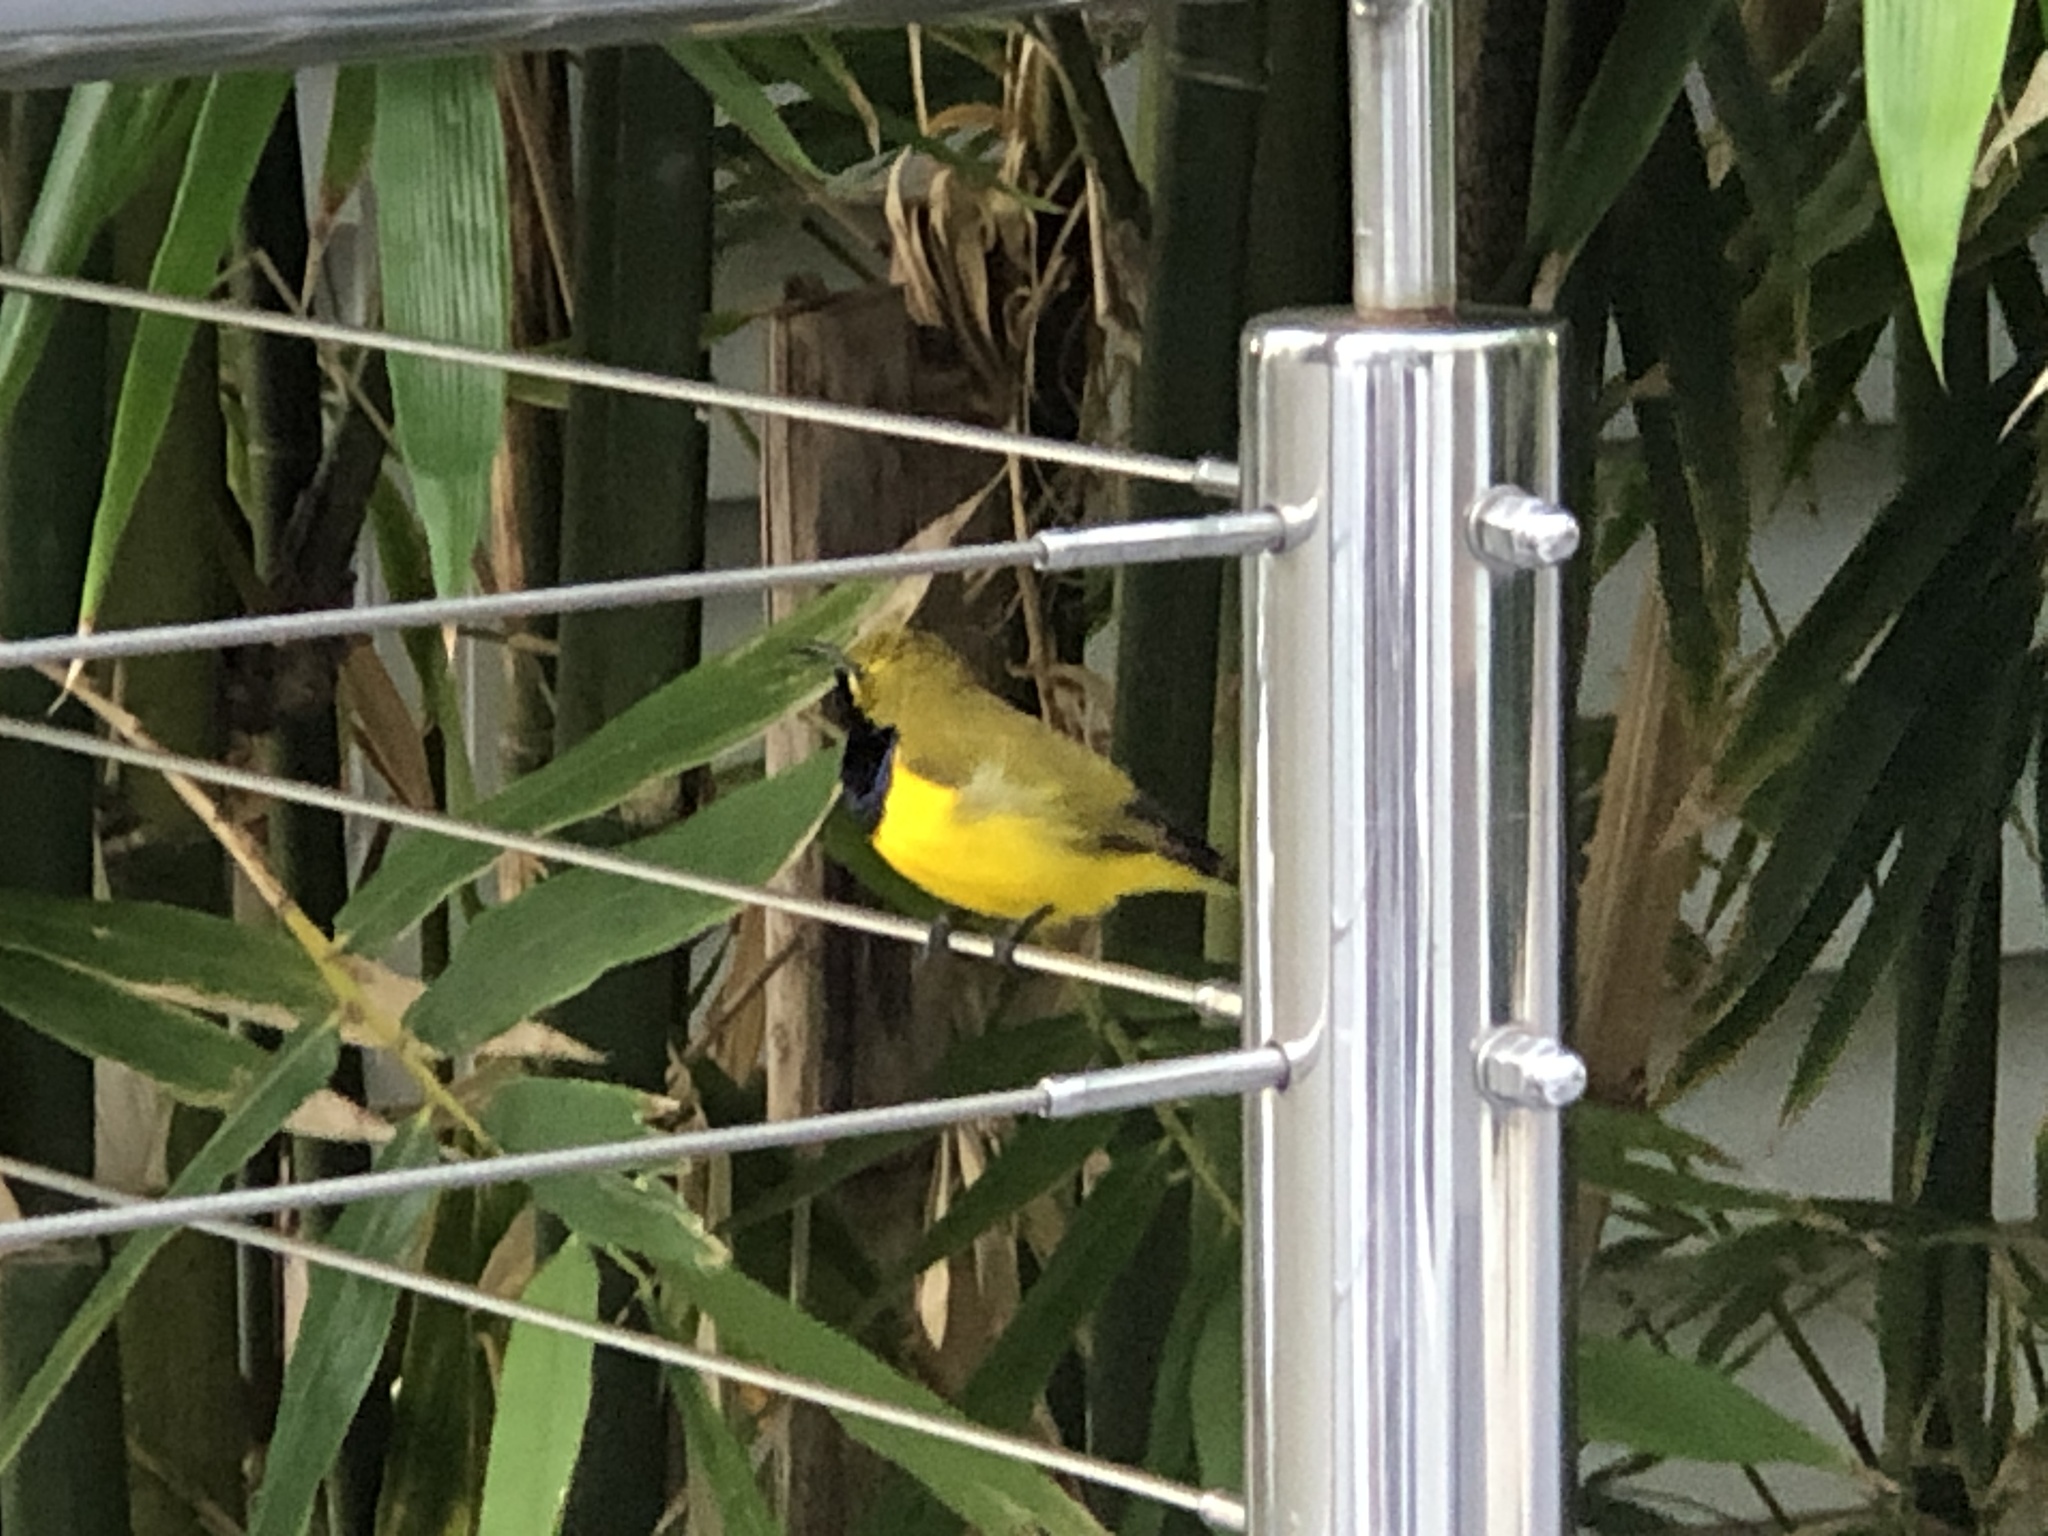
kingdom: Animalia
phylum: Chordata
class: Aves
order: Passeriformes
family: Nectariniidae
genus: Cinnyris
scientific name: Cinnyris
